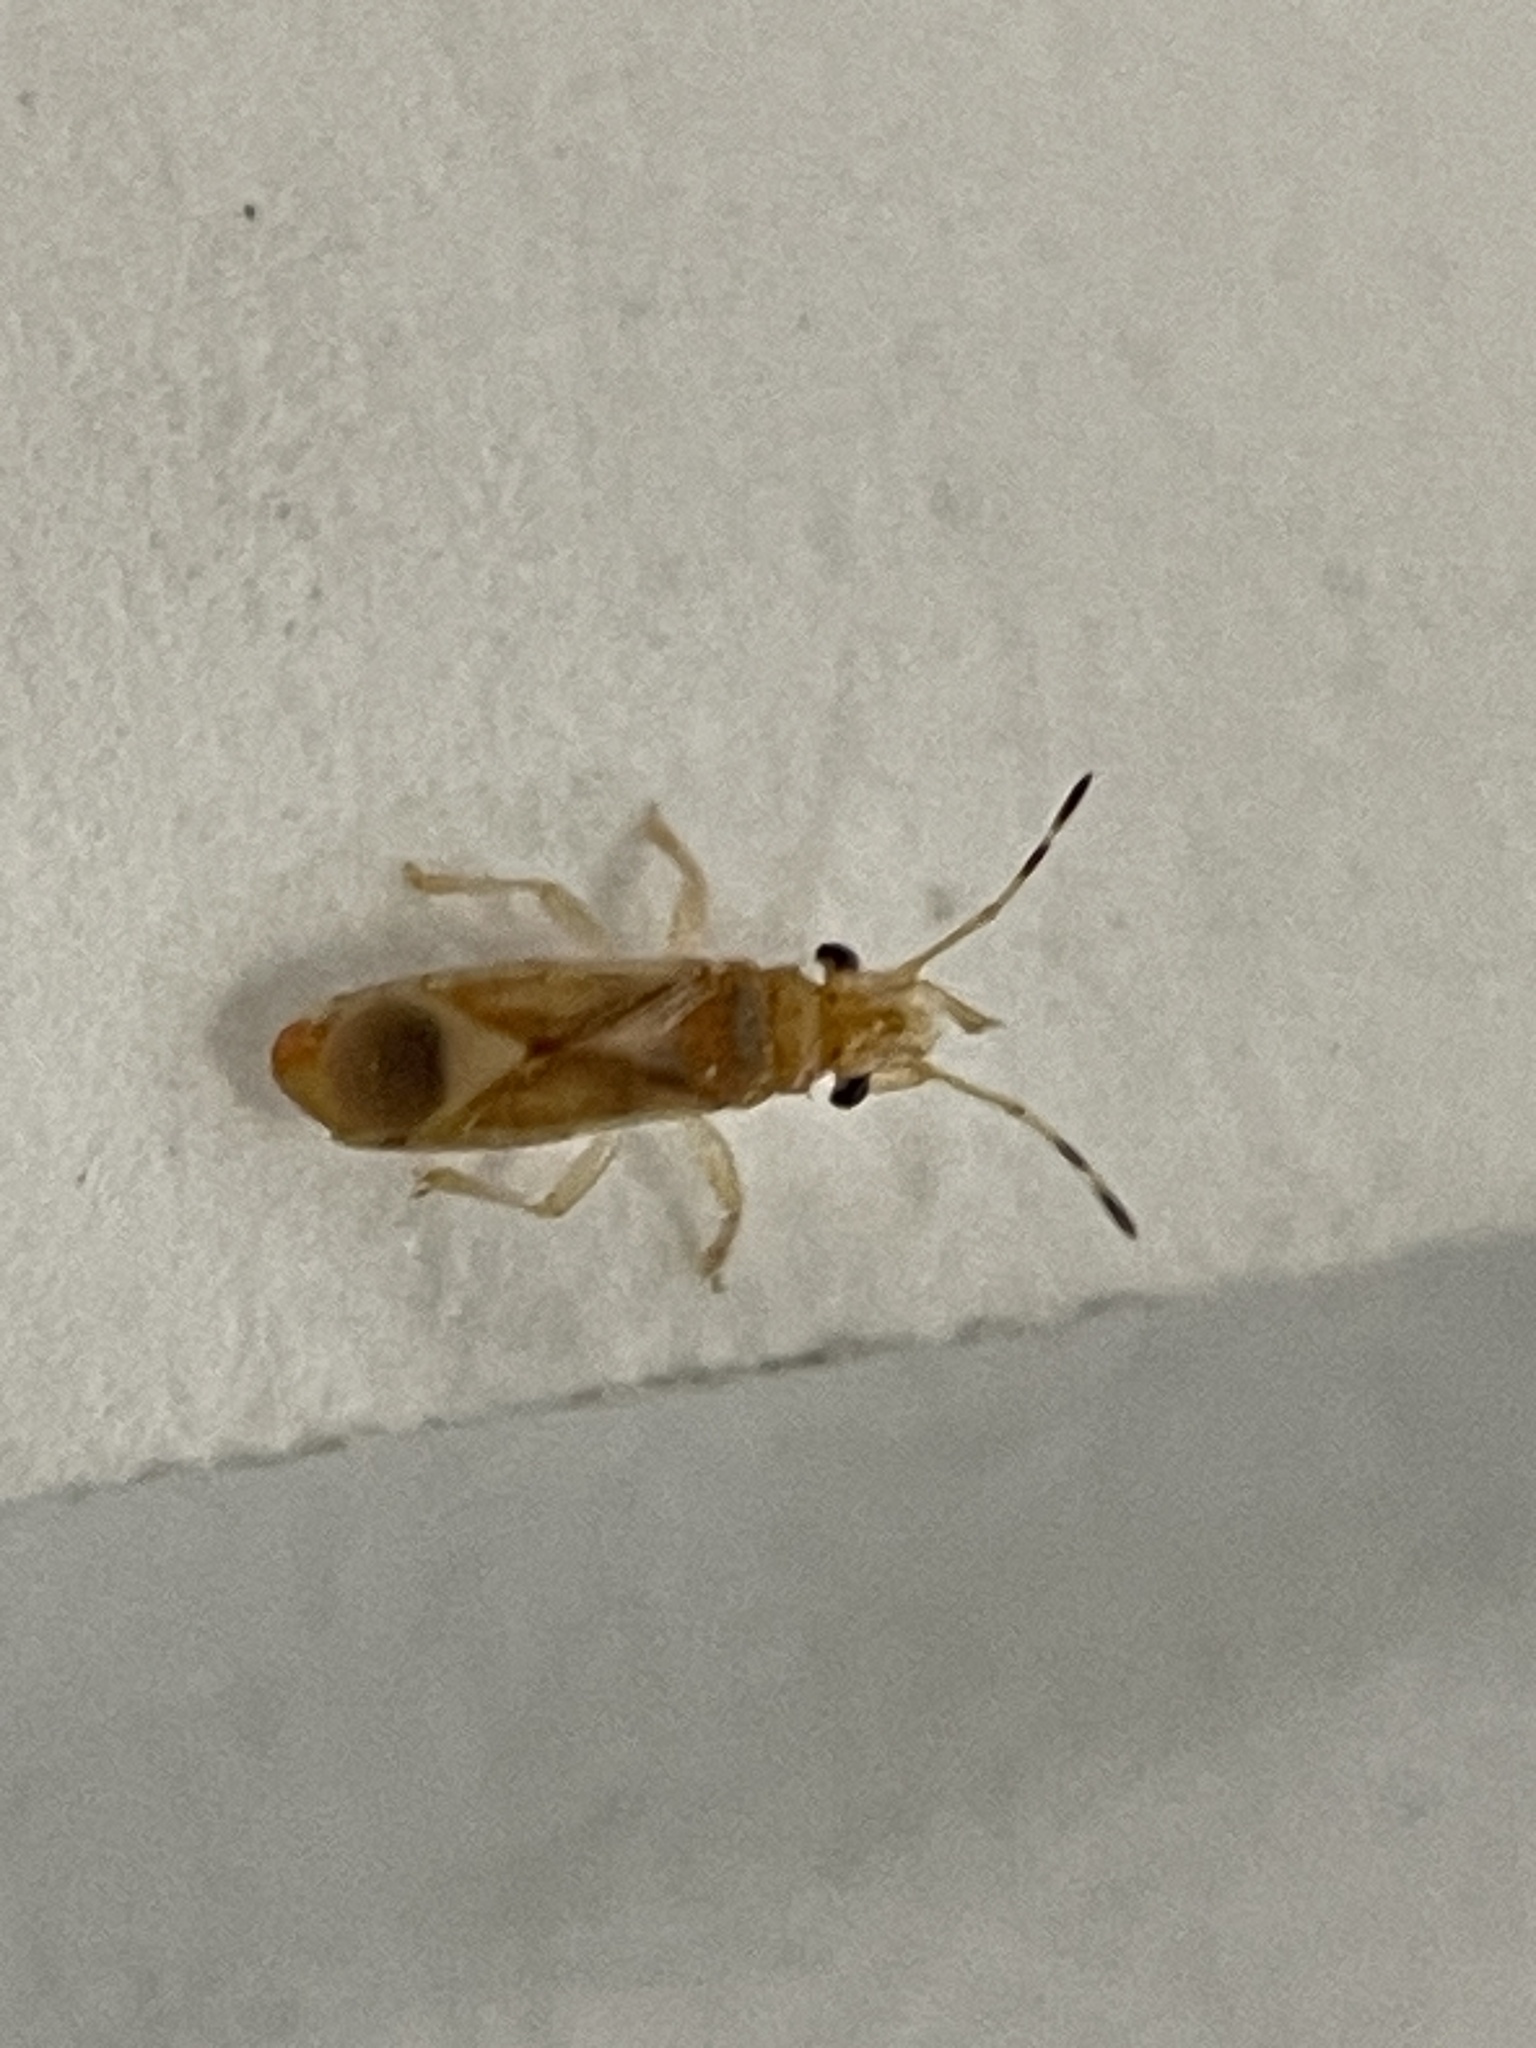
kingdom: Animalia
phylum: Arthropoda
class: Insecta
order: Hemiptera
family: Thaumastocoridae
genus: Thaumastocoris
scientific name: Thaumastocoris peregrinus
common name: Bronze bug
